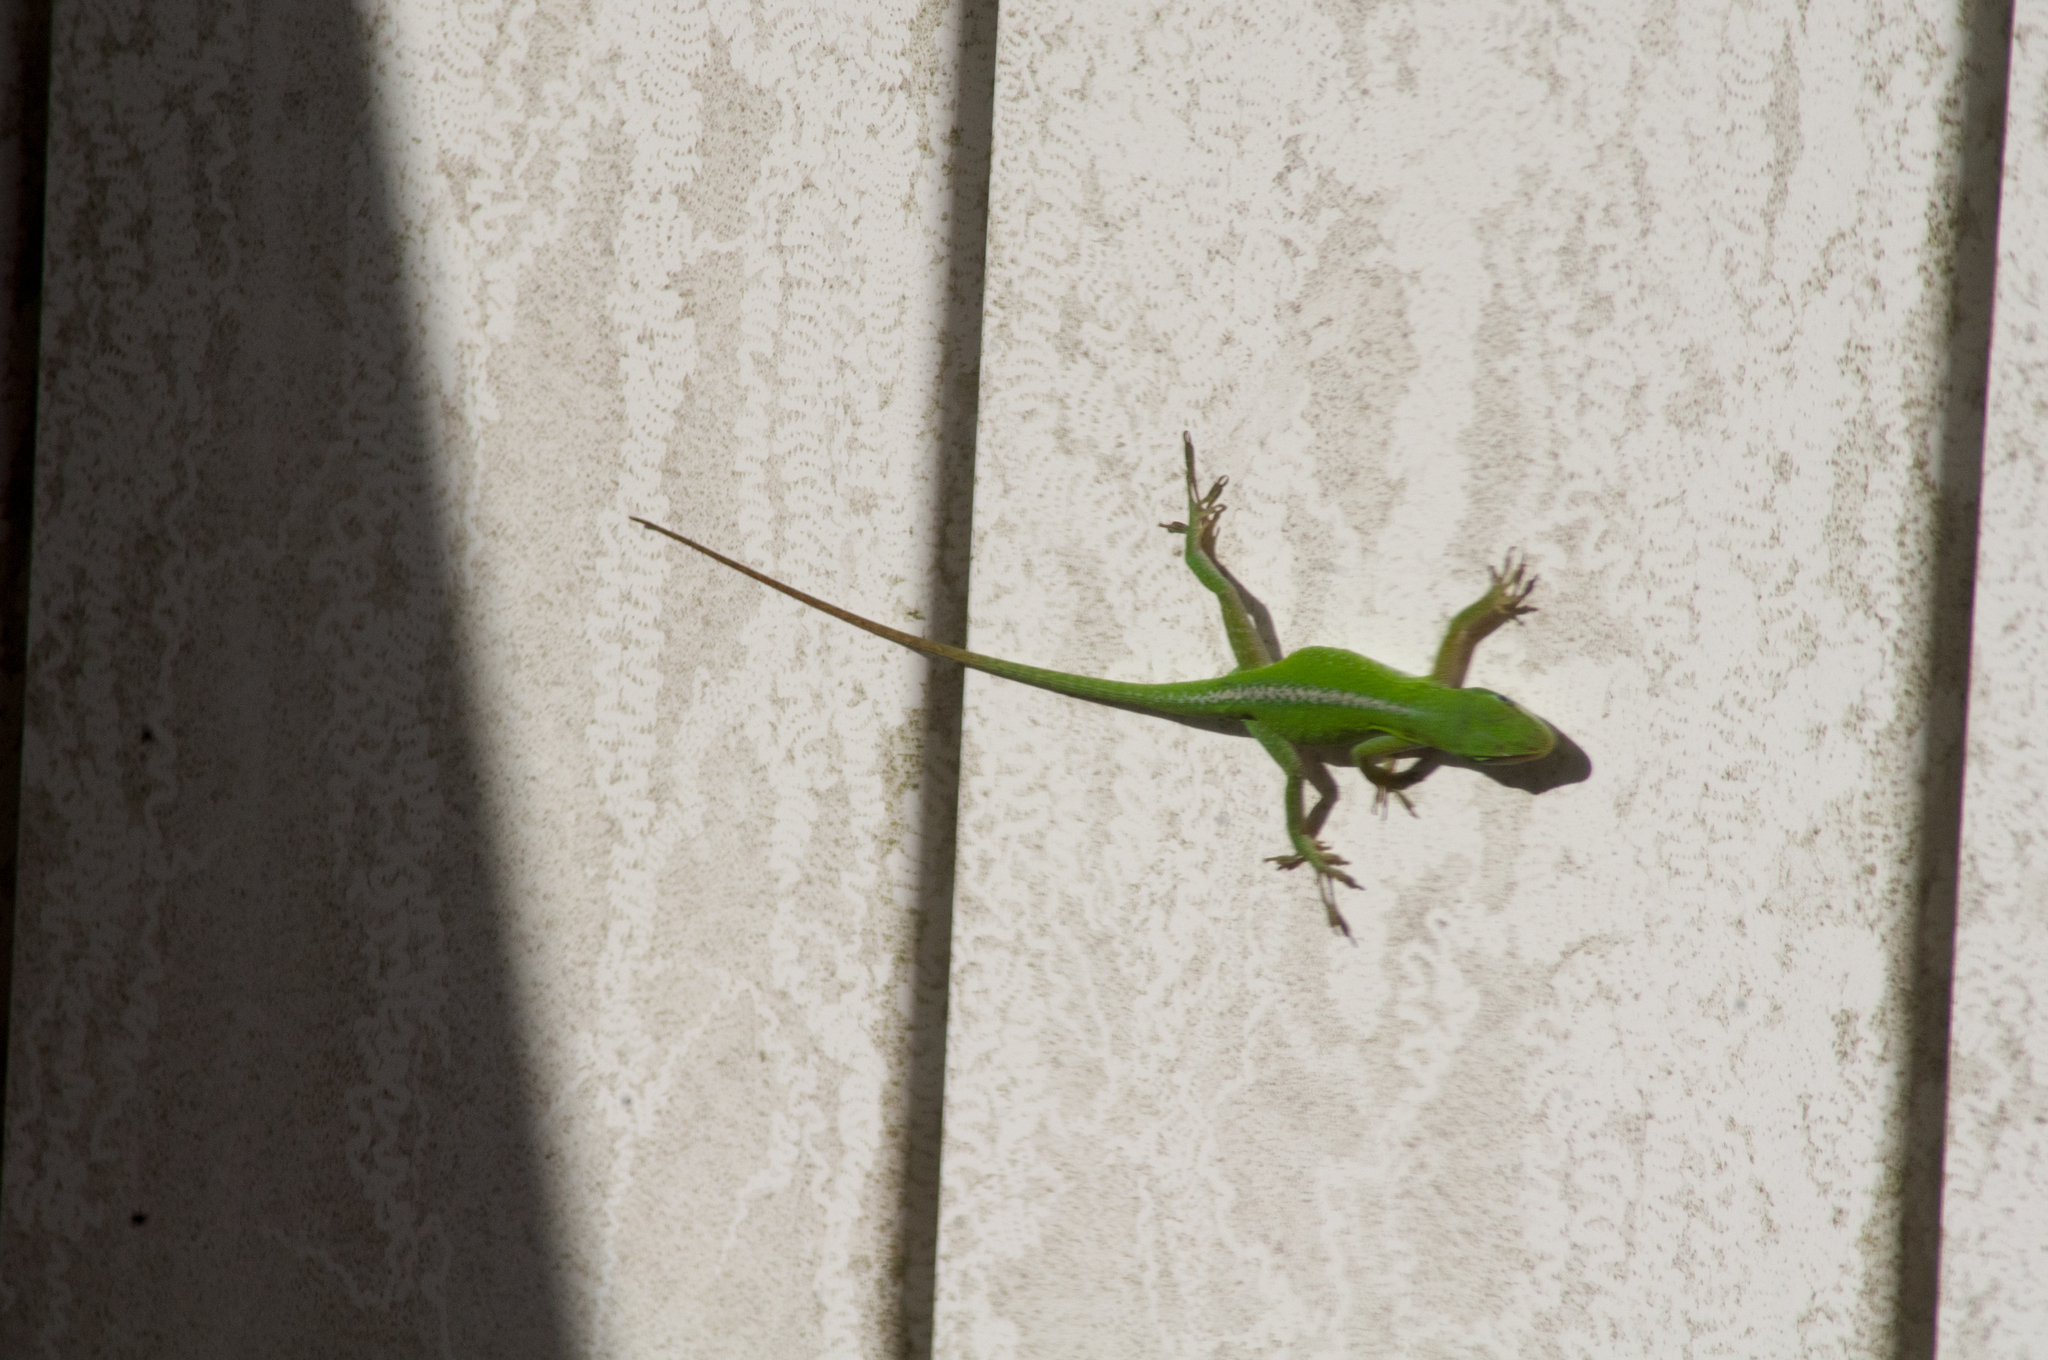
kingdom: Animalia
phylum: Chordata
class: Squamata
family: Dactyloidae
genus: Anolis
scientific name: Anolis carolinensis
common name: Green anole
